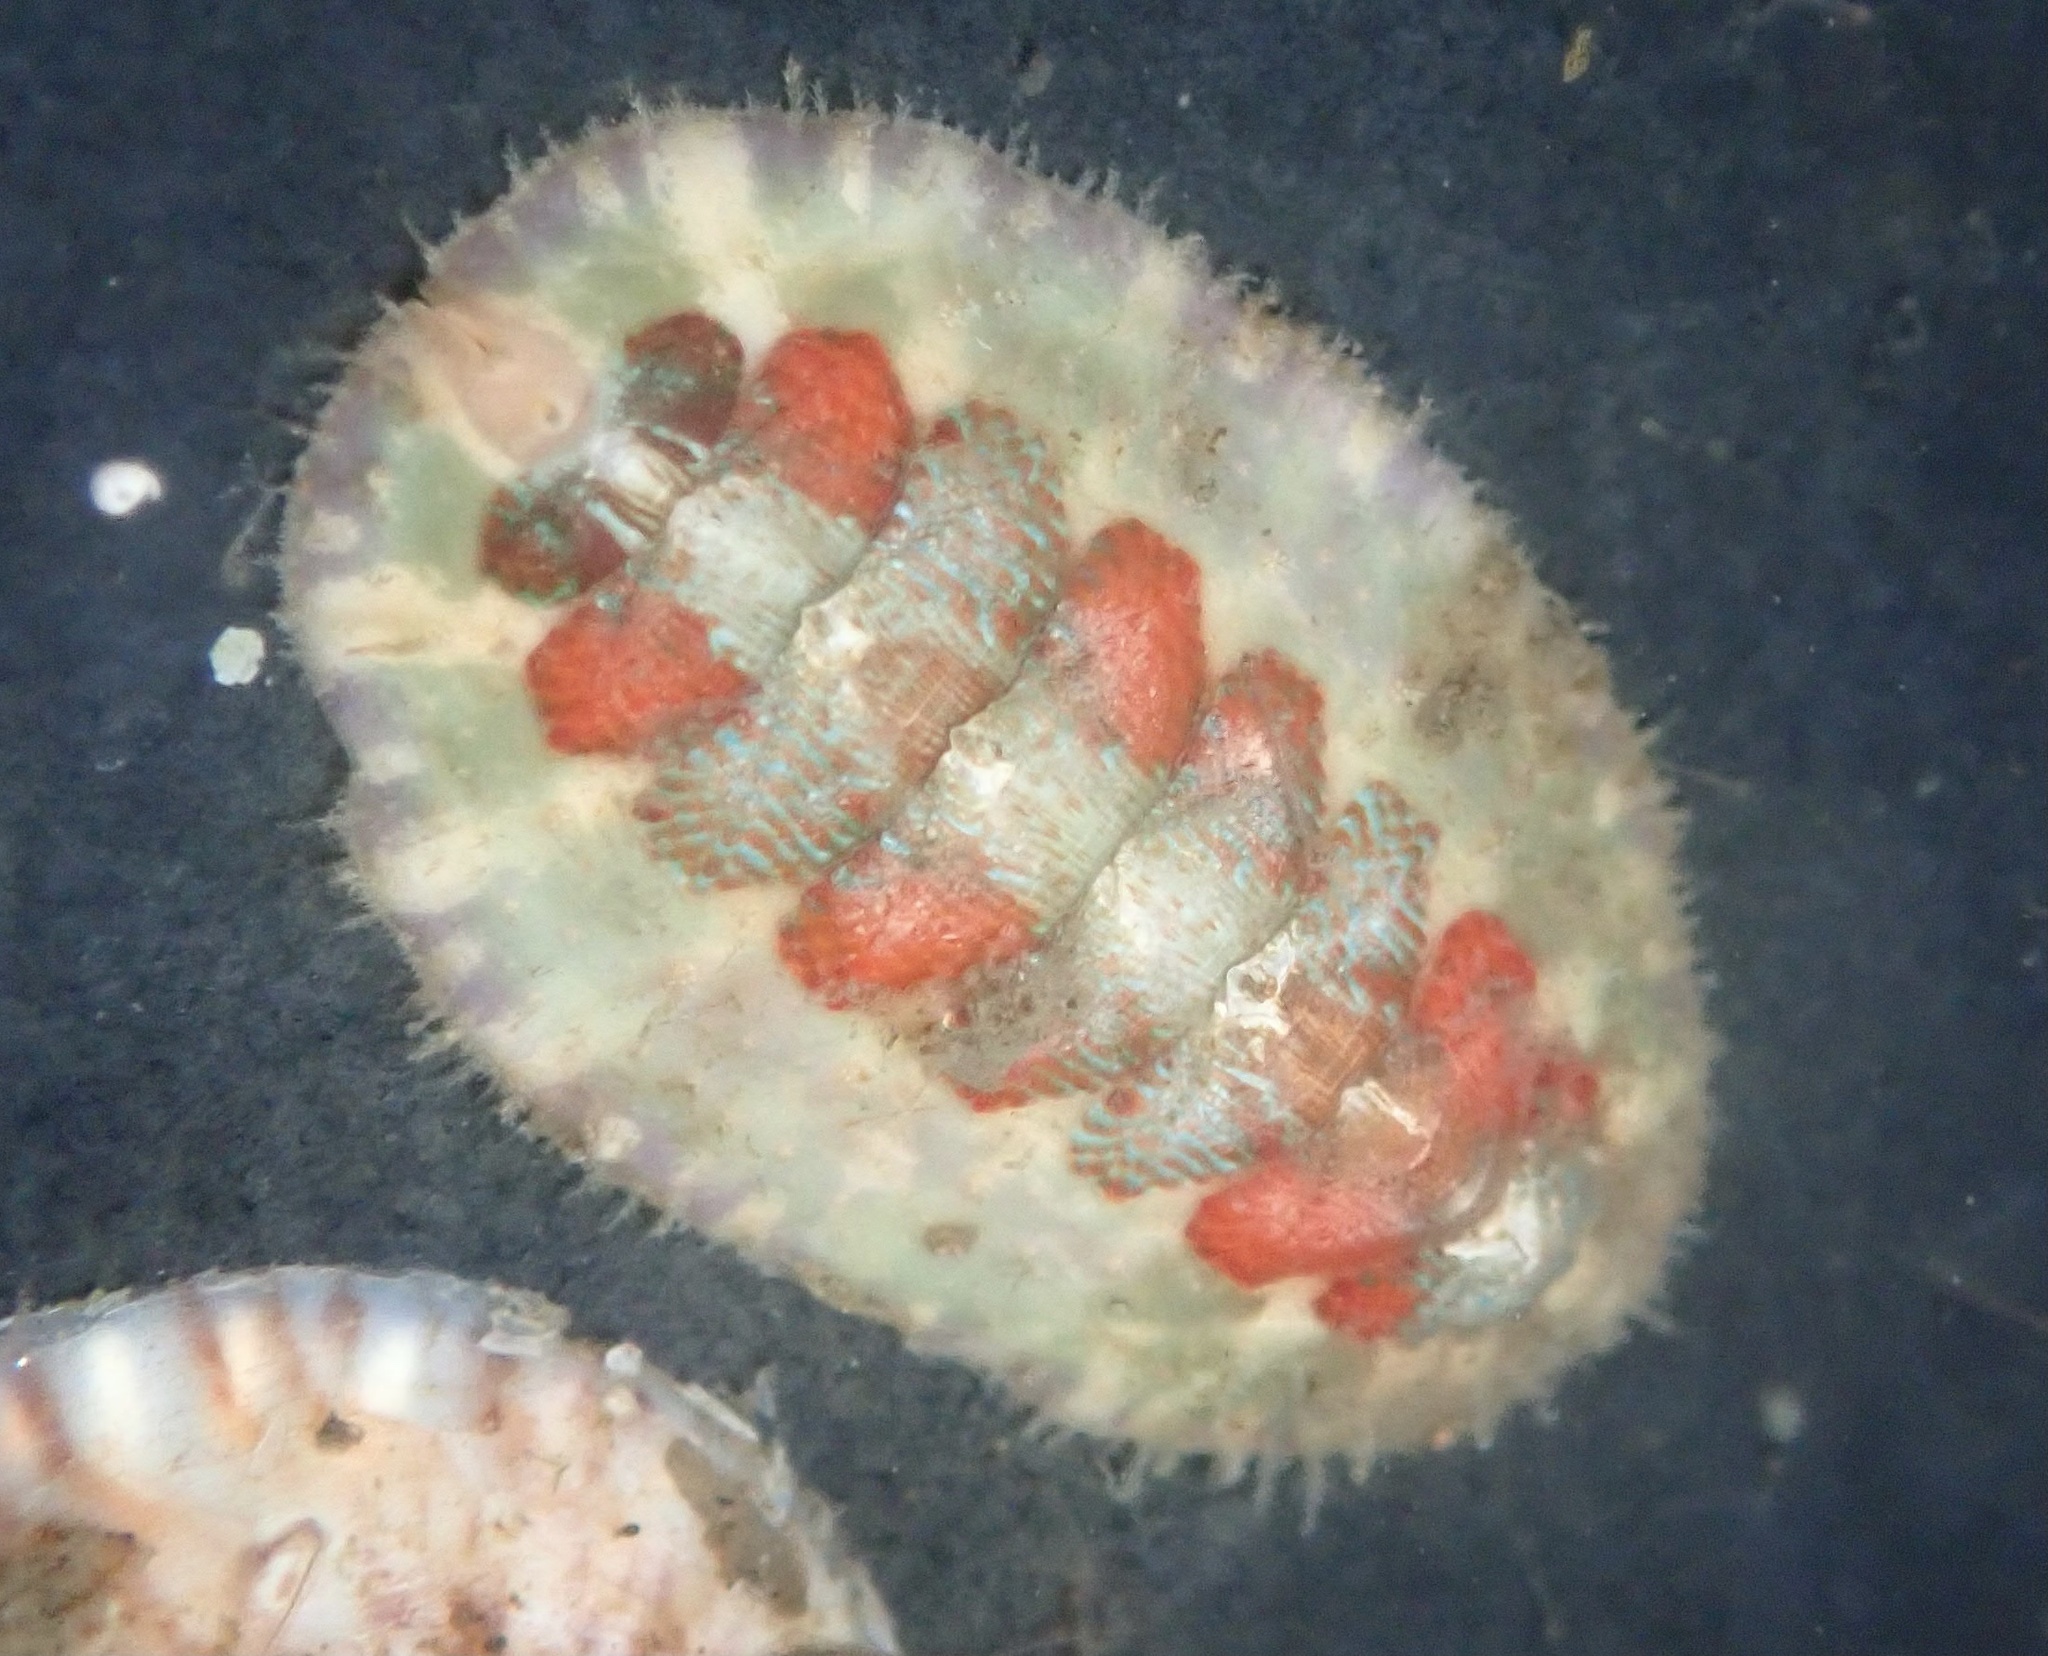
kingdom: Animalia
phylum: Mollusca
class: Polyplacophora
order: Chitonida
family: Mopaliidae
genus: Mopalia
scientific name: Mopalia spectabilis
